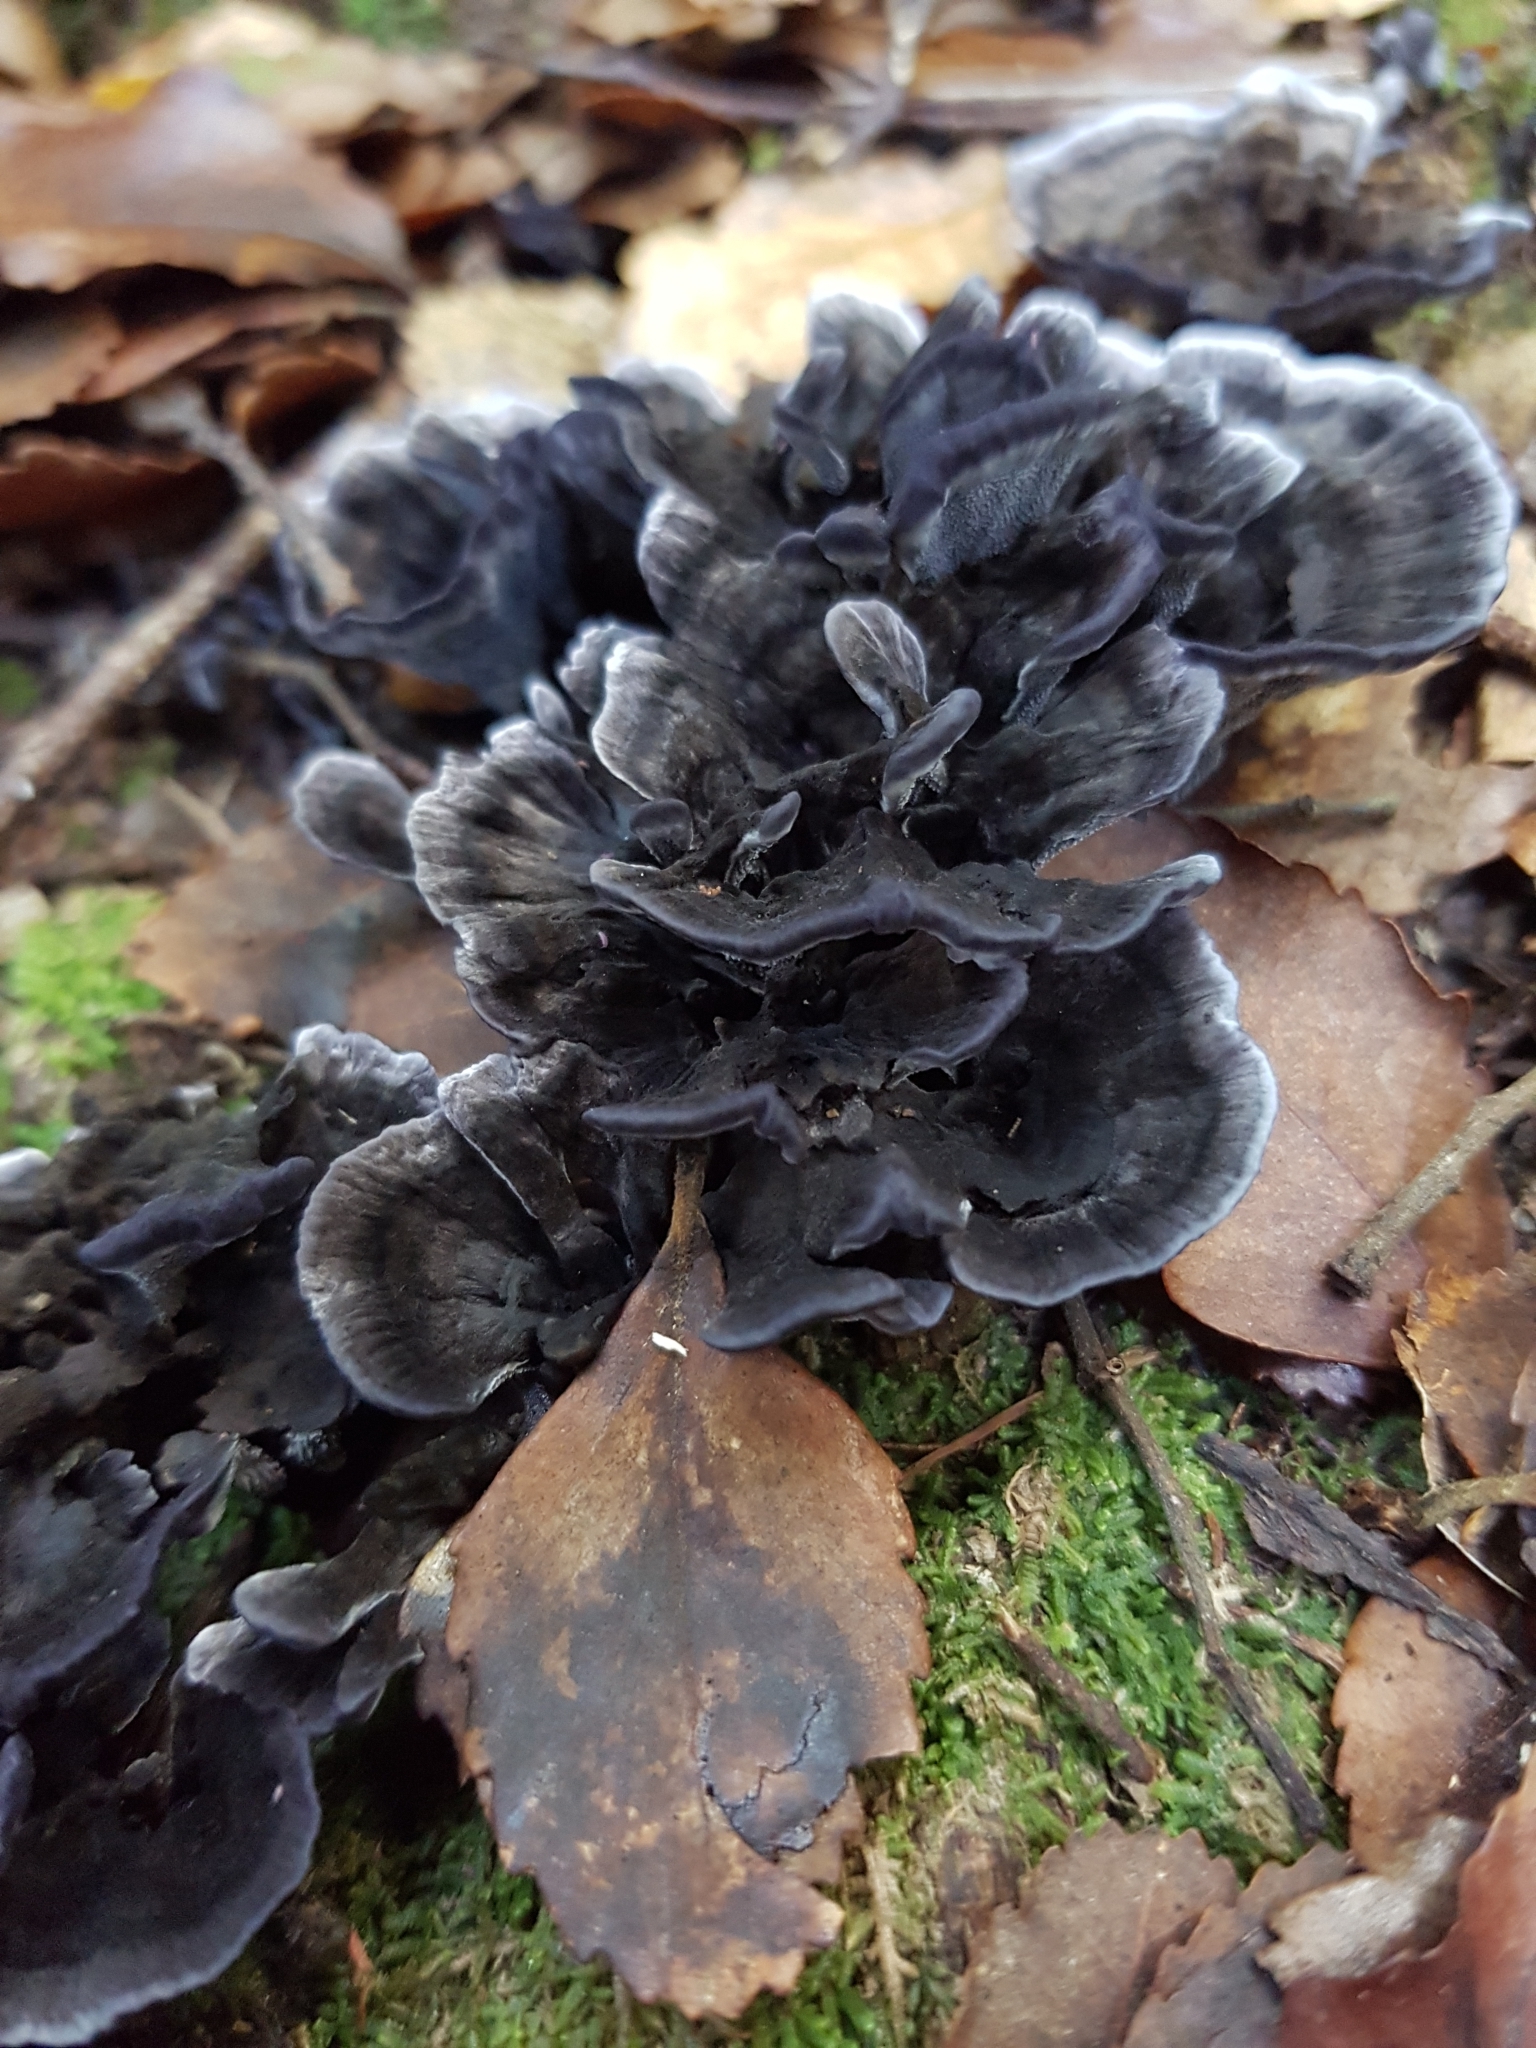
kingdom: Fungi
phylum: Basidiomycota
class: Agaricomycetes
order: Thelephorales
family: Thelephoraceae
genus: Phellodon
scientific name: Phellodon sinclairii
